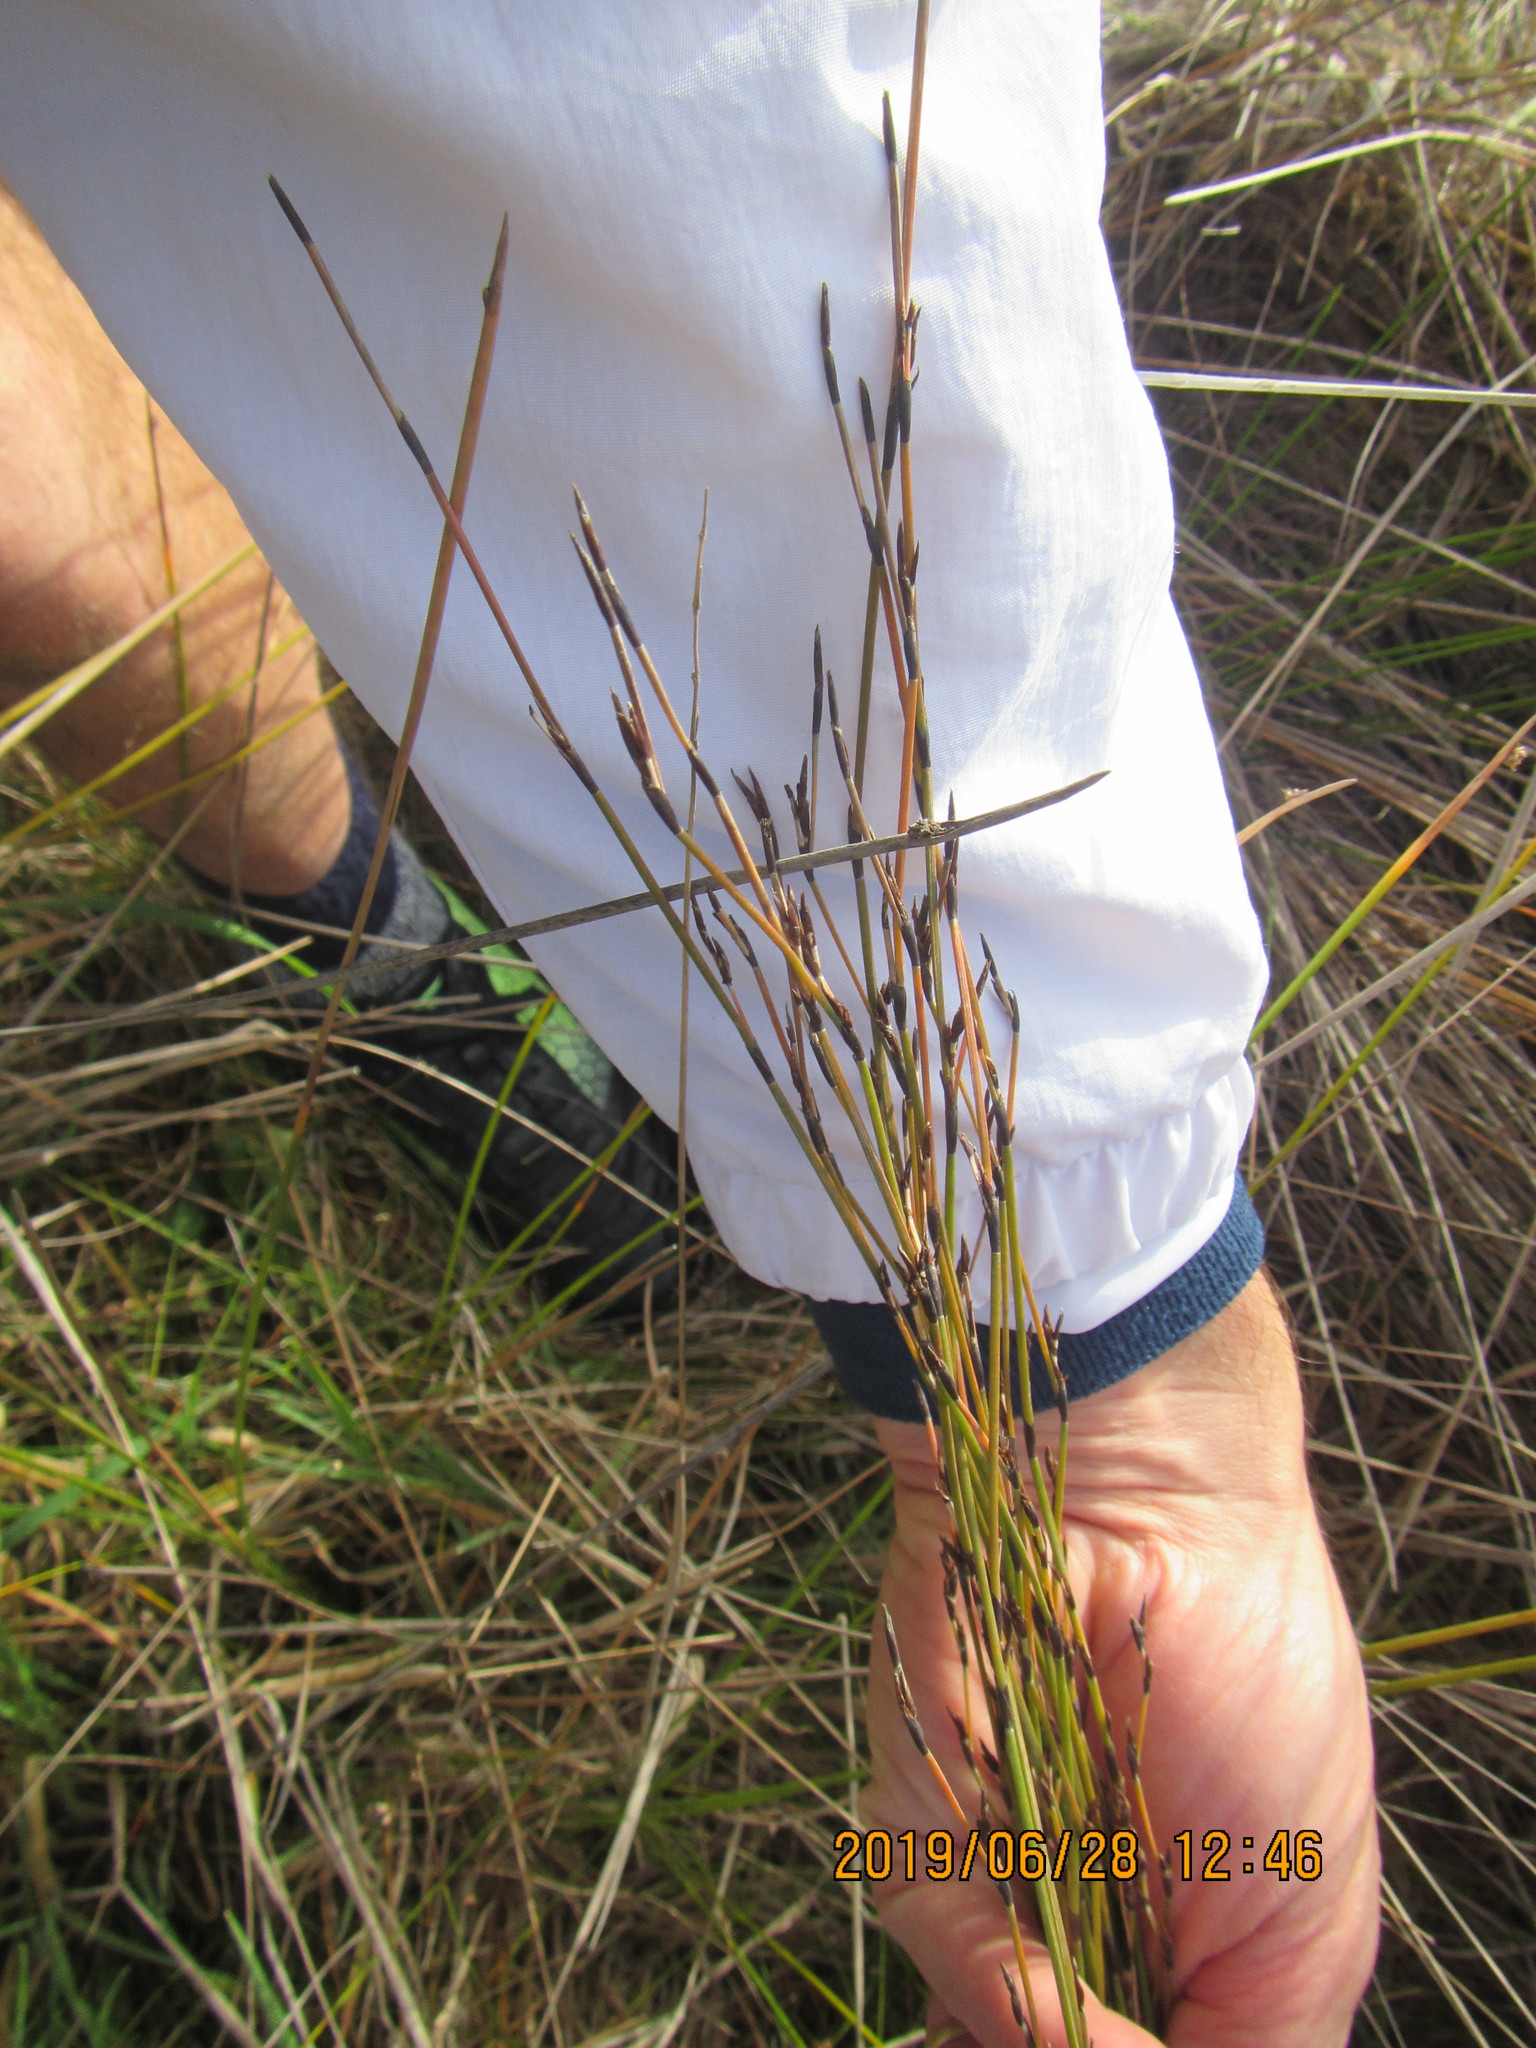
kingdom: Plantae
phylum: Tracheophyta
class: Liliopsida
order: Poales
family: Restionaceae
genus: Apodasmia
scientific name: Apodasmia similis
